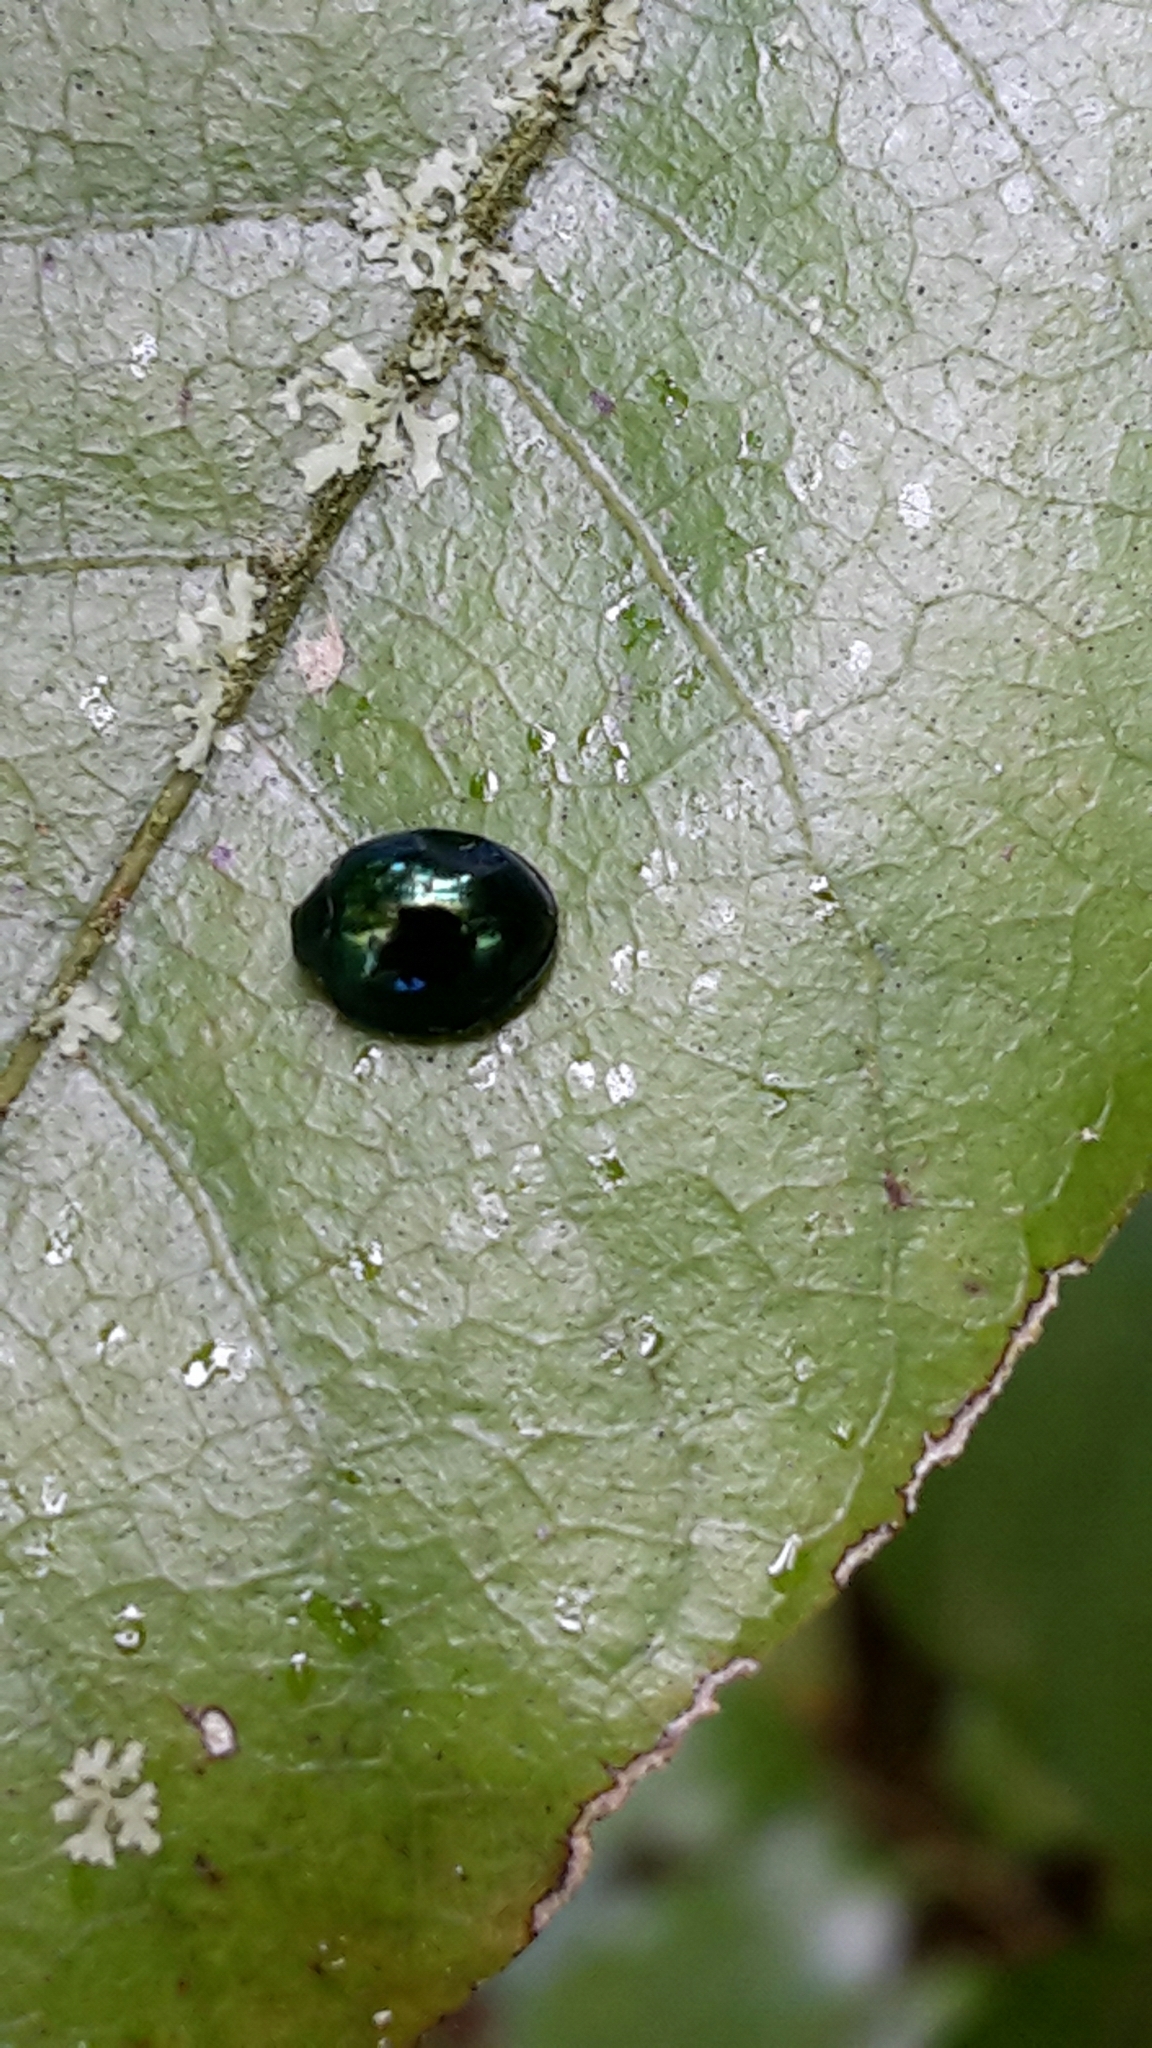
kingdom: Animalia
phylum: Arthropoda
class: Insecta
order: Coleoptera
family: Coccinellidae
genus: Halmus
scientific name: Halmus chalybeus
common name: Steel blue ladybird beetle
